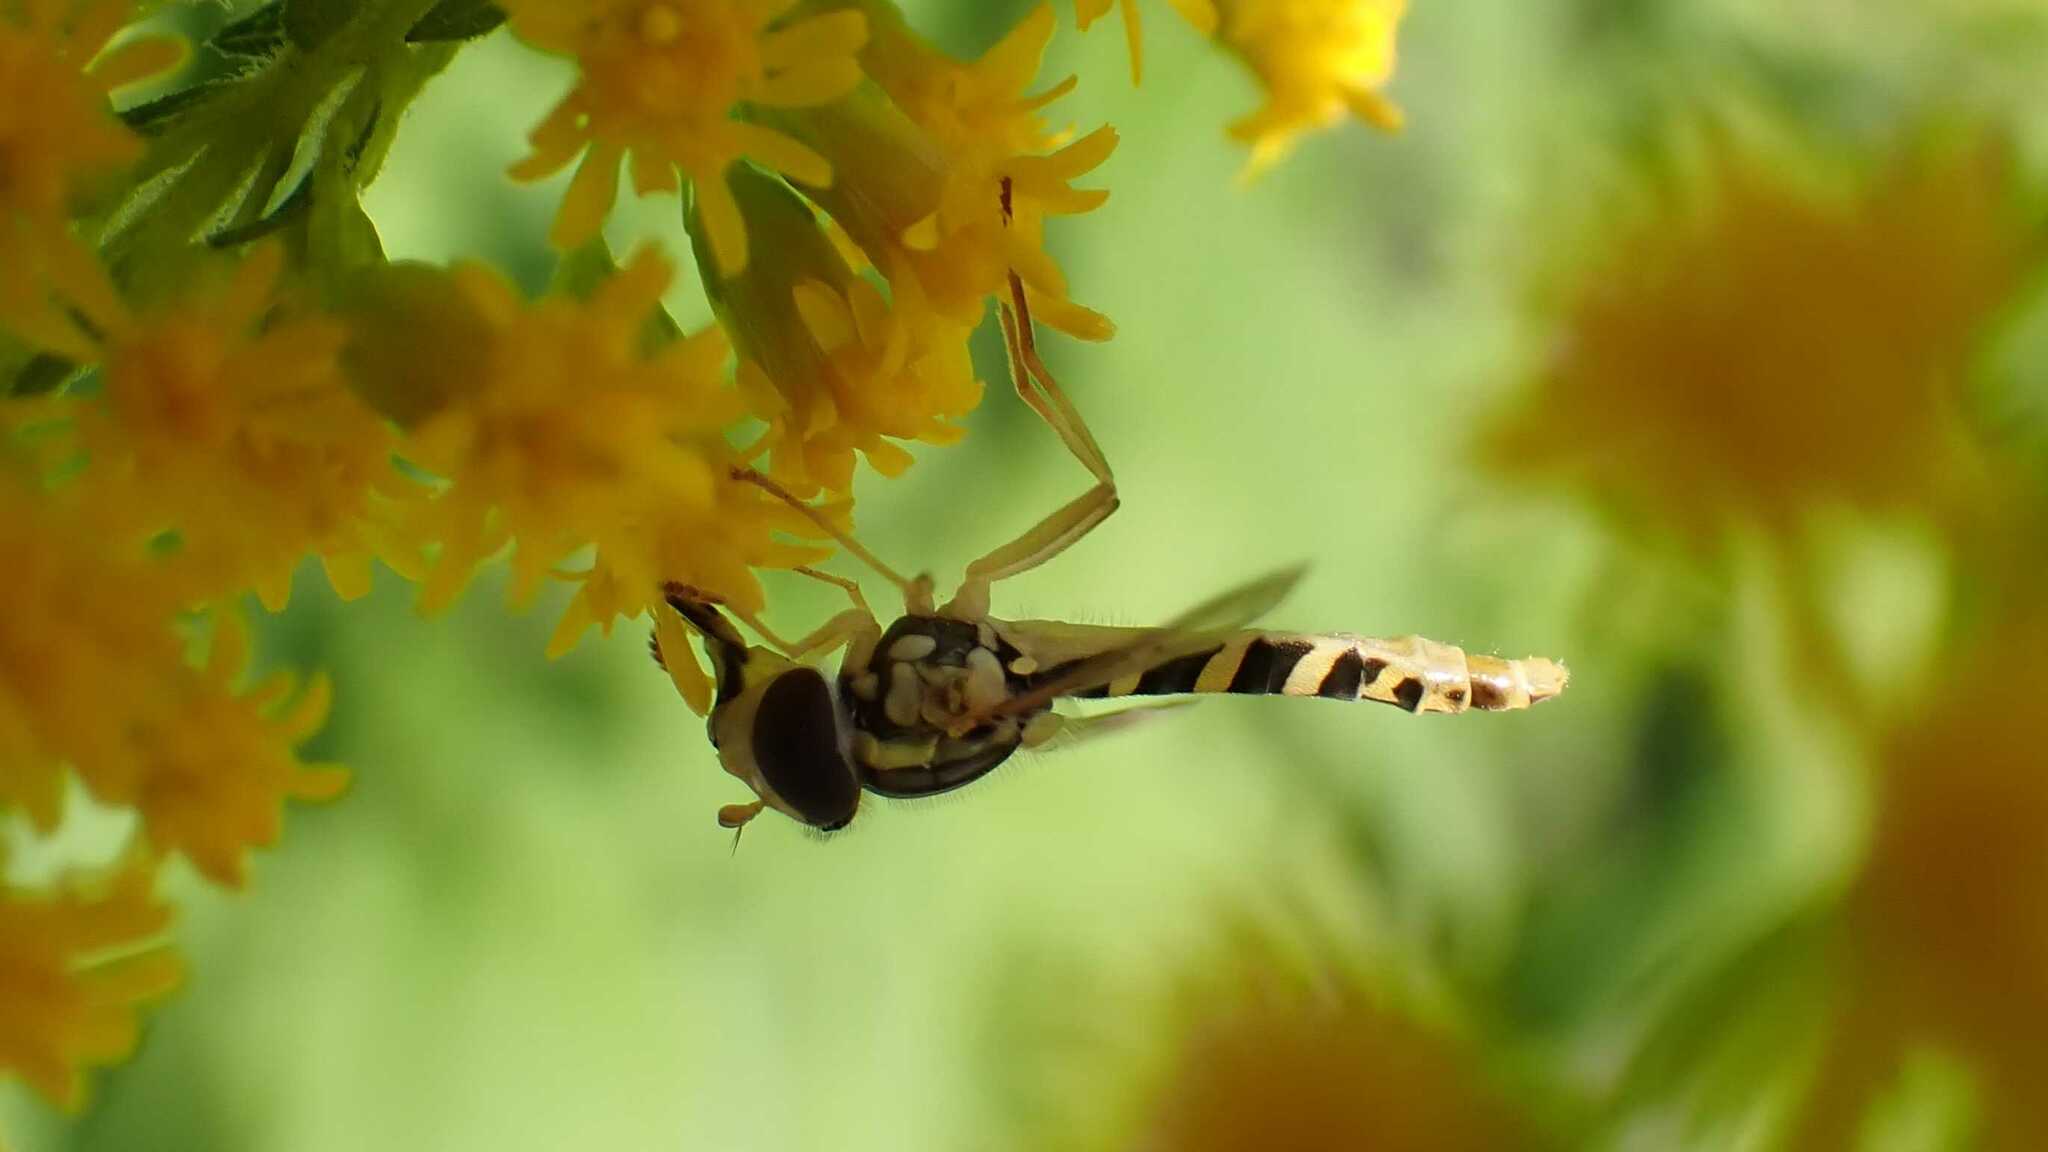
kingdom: Animalia
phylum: Arthropoda
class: Insecta
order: Diptera
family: Syrphidae
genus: Sphaerophoria
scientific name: Sphaerophoria
